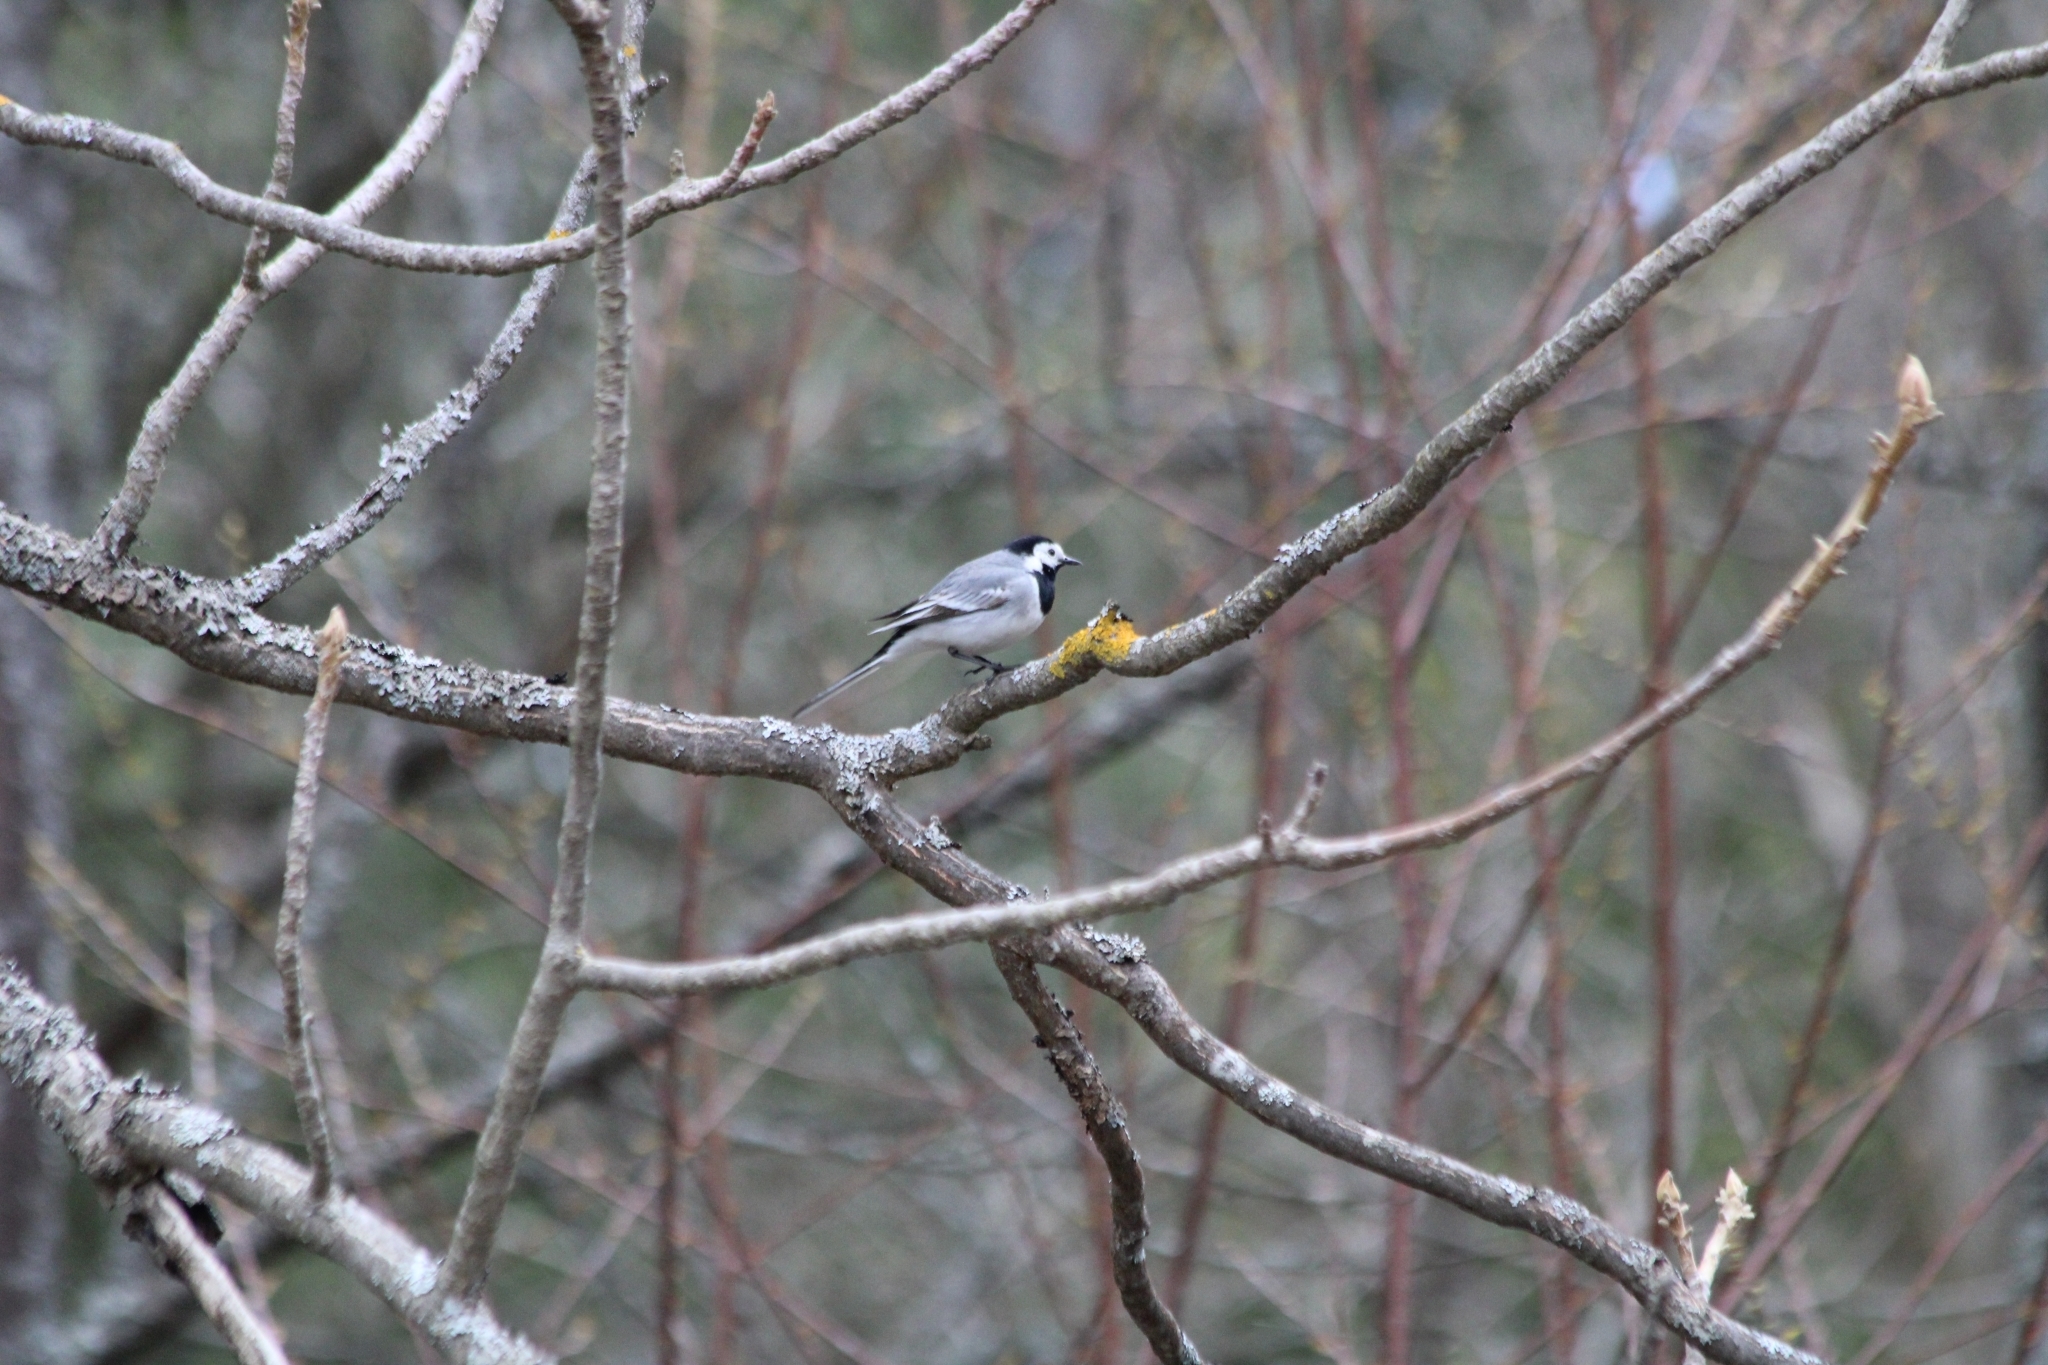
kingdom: Animalia
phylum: Chordata
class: Aves
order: Passeriformes
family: Motacillidae
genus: Motacilla
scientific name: Motacilla alba
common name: White wagtail
